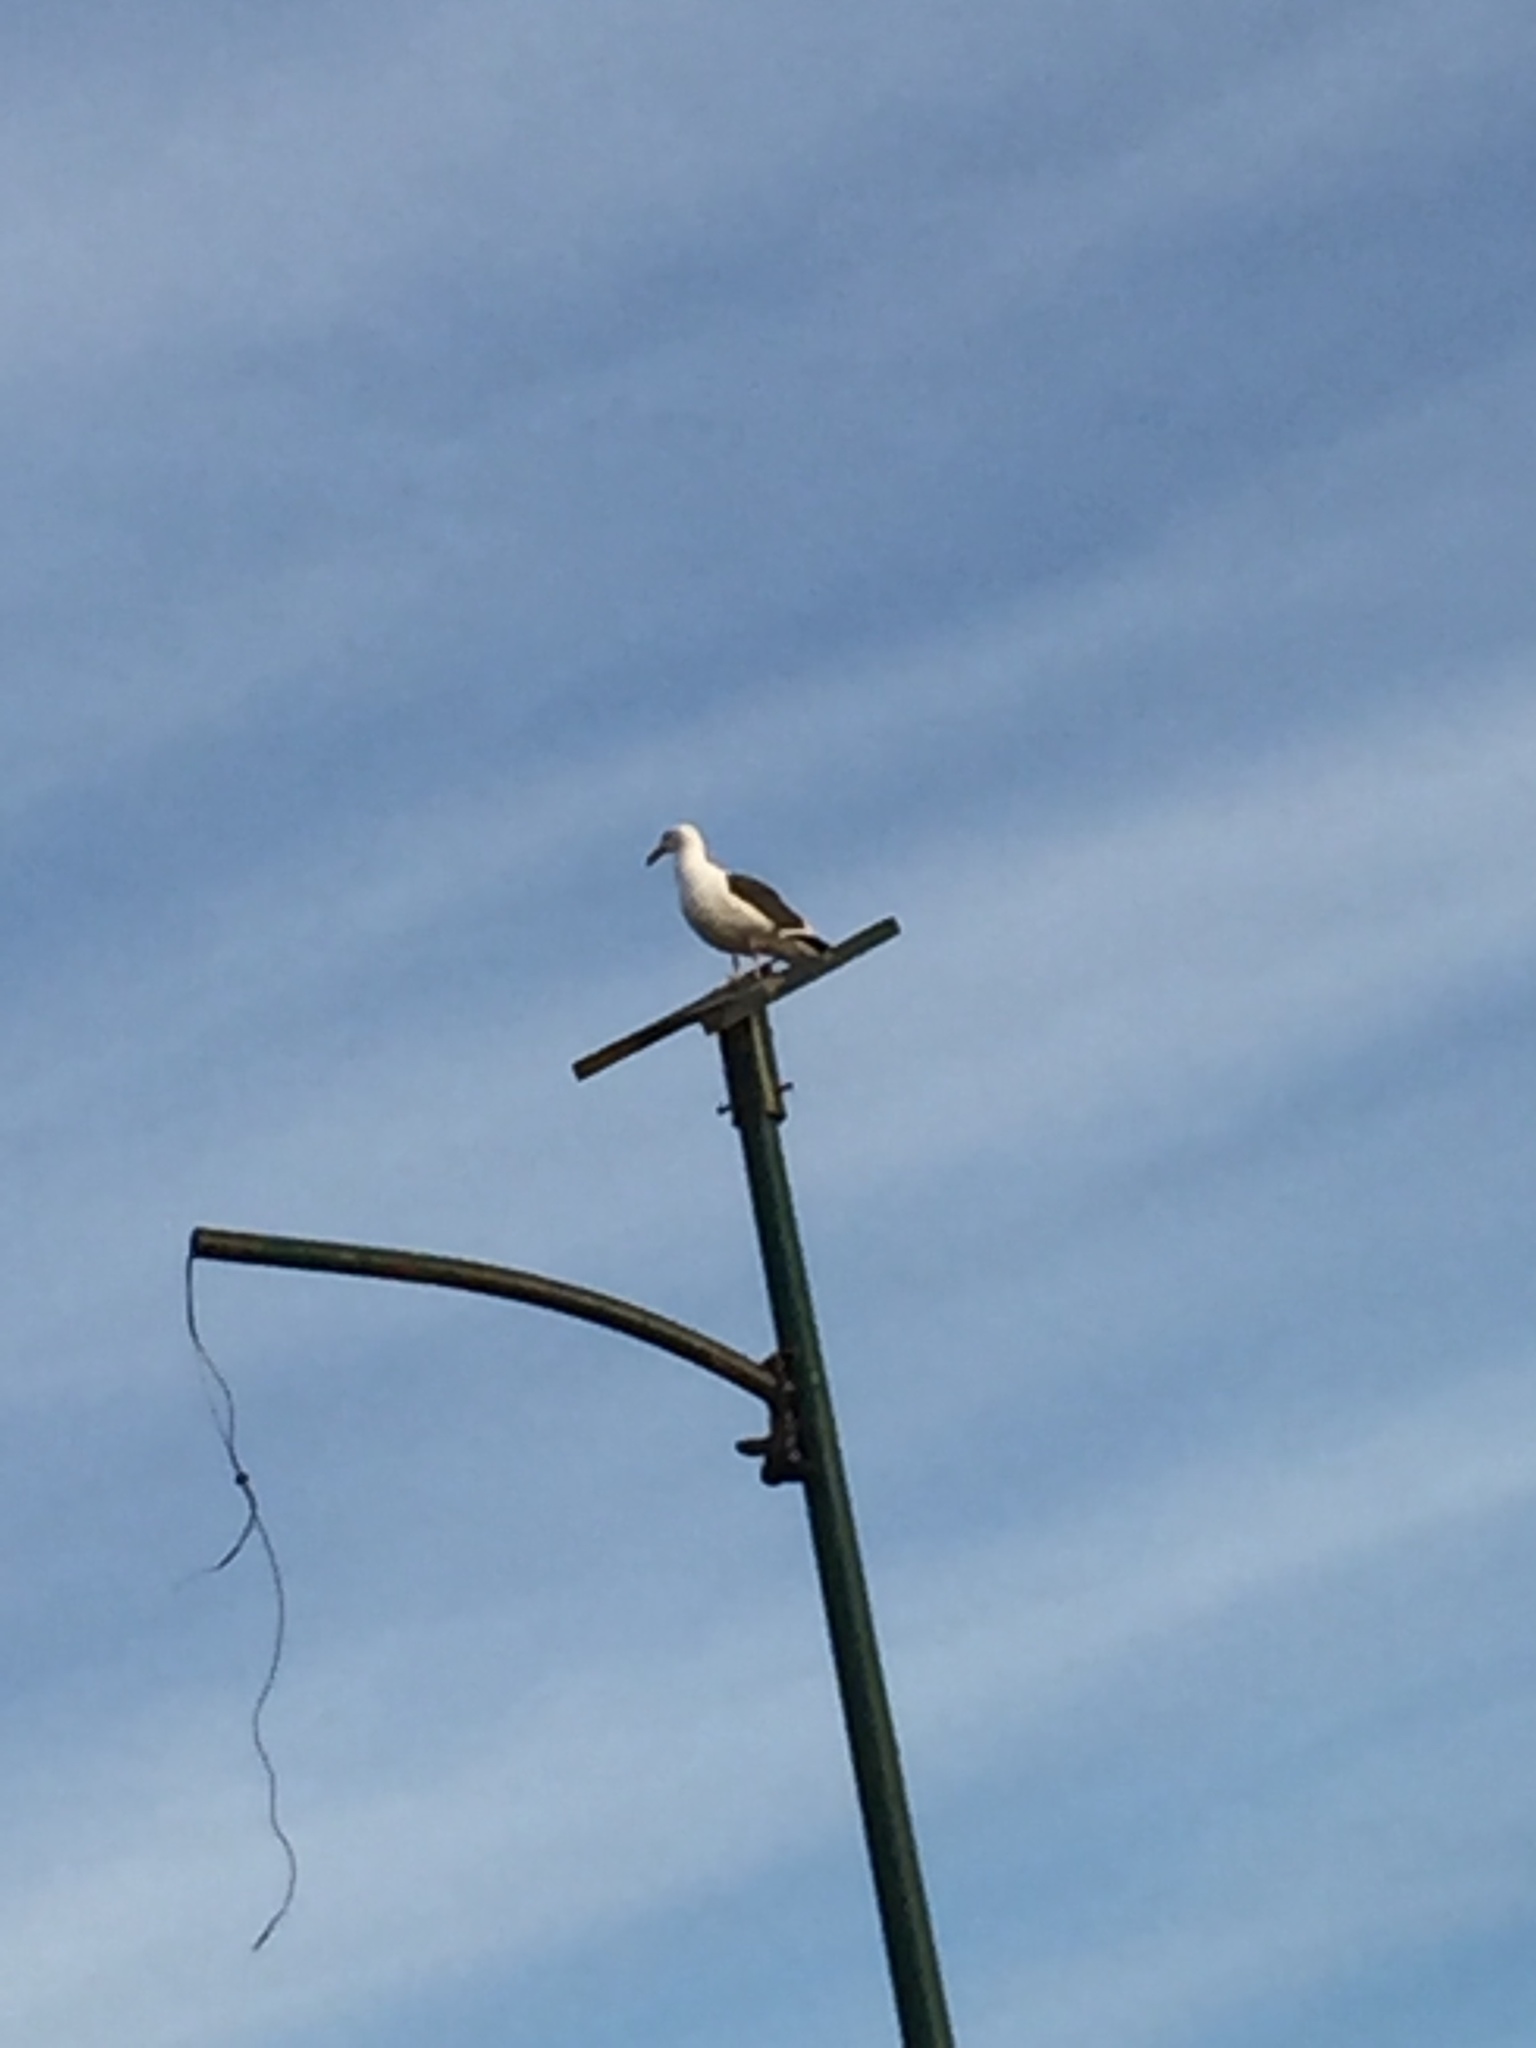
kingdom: Animalia
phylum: Chordata
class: Aves
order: Charadriiformes
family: Laridae
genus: Larus
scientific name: Larus occidentalis
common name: Western gull
